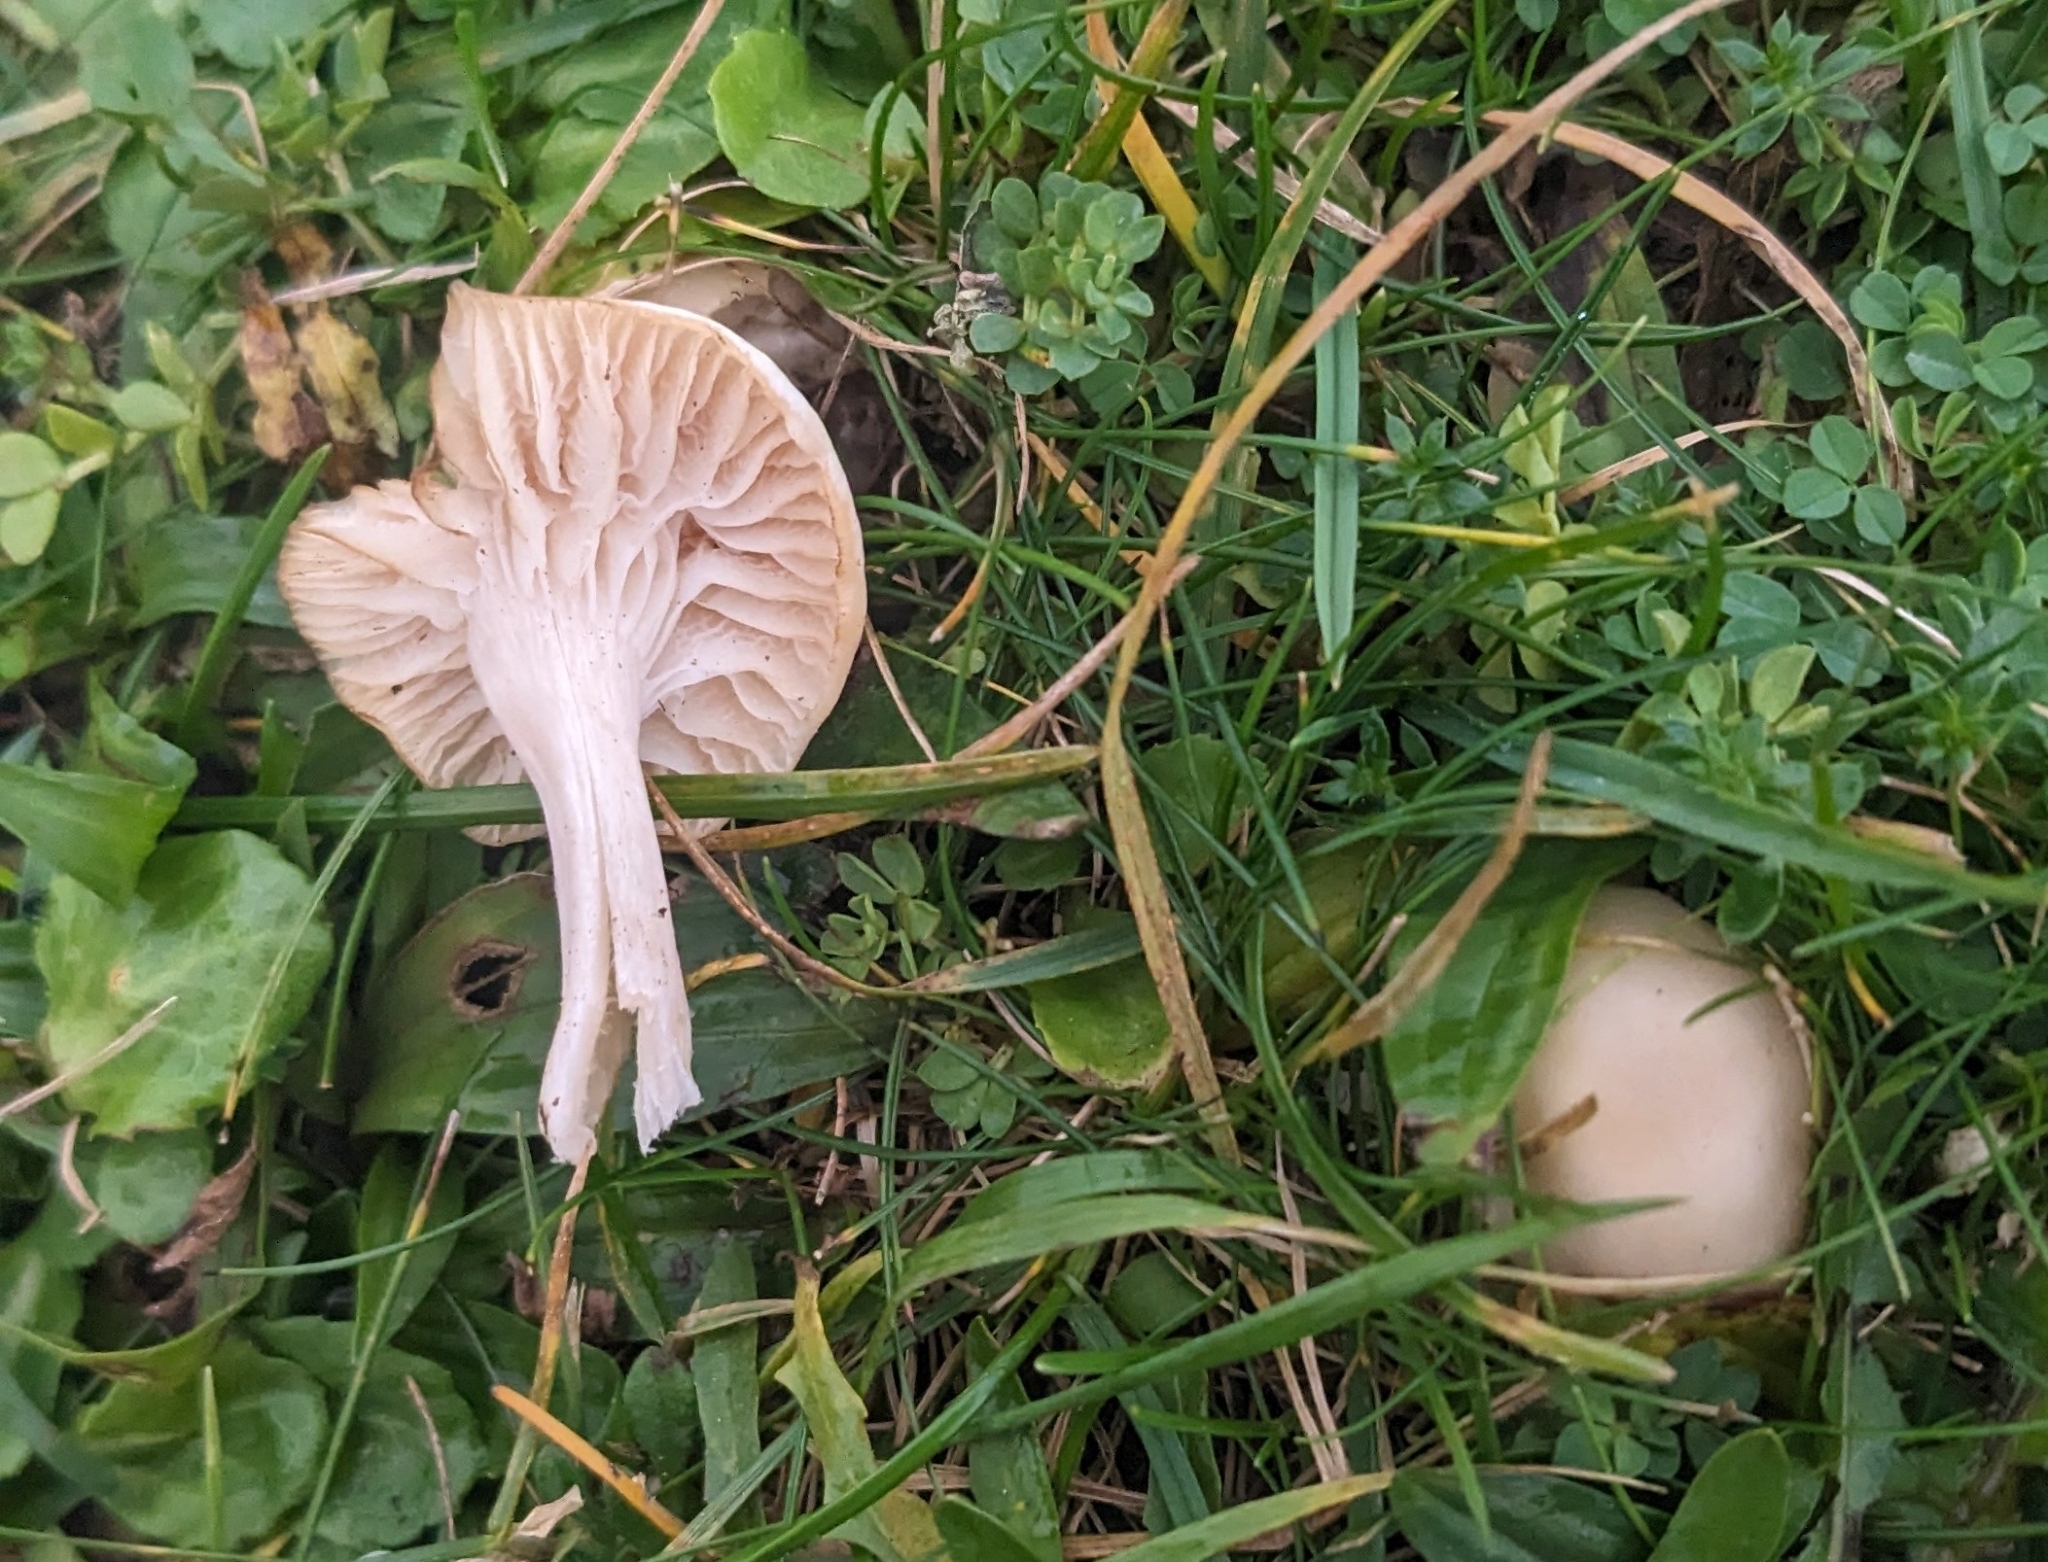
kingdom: Fungi
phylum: Basidiomycota
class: Agaricomycetes
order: Agaricales
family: Hygrophoraceae
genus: Cuphophyllus
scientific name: Cuphophyllus virgineus
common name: Snowy waxcap
